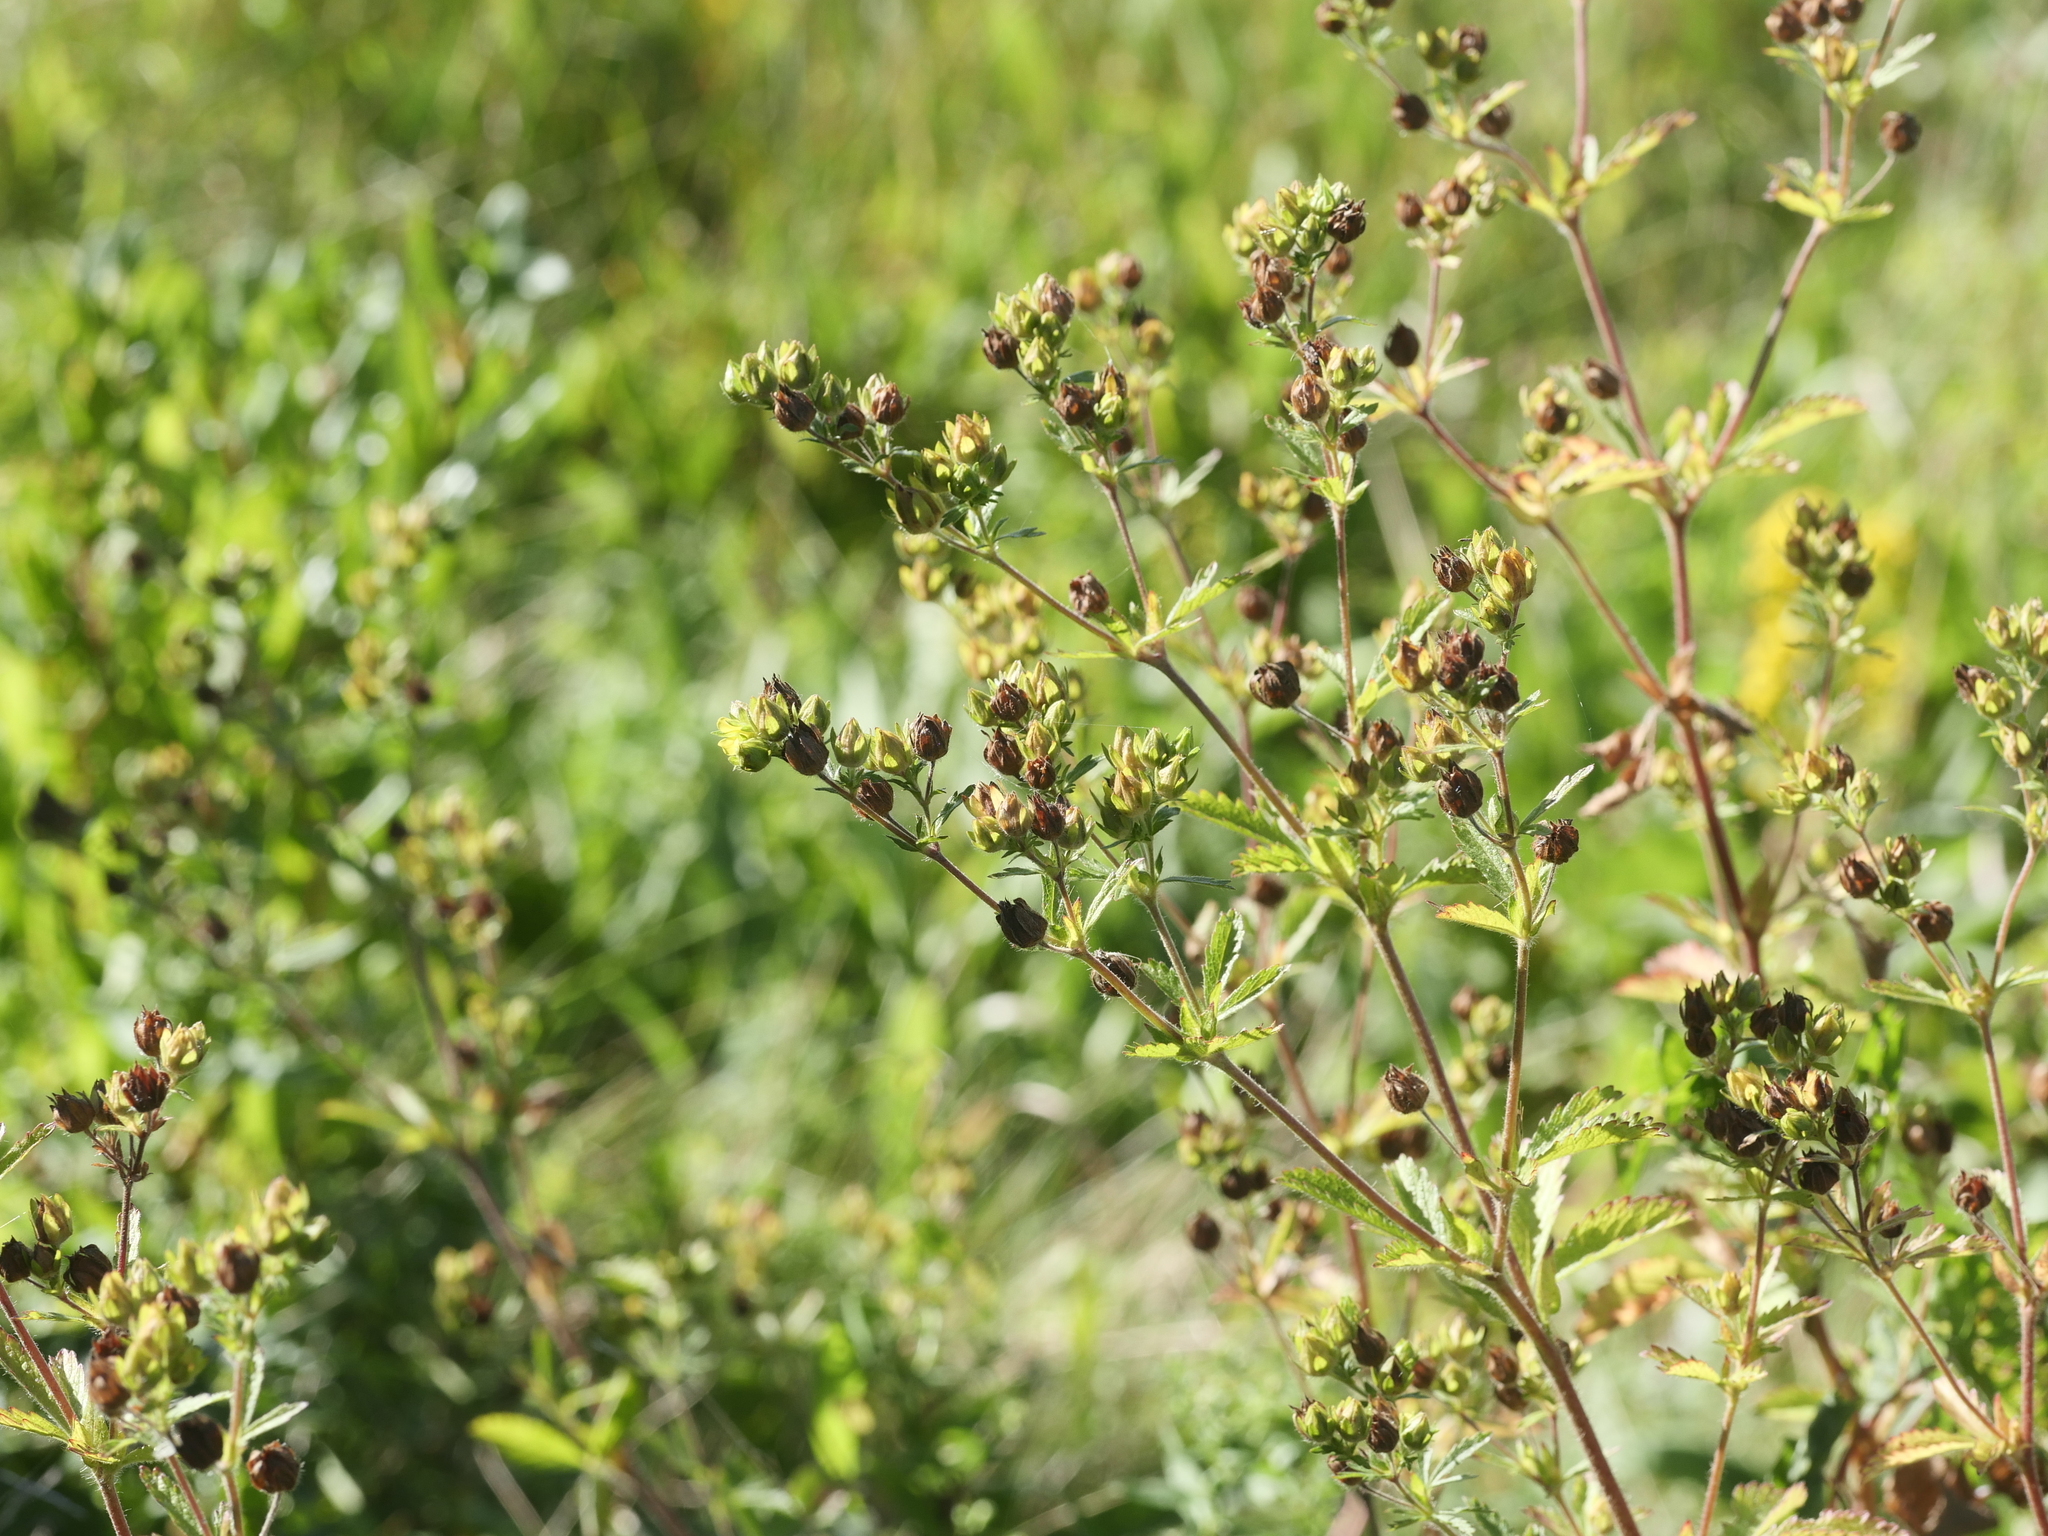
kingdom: Plantae
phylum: Tracheophyta
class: Magnoliopsida
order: Rosales
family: Rosaceae
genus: Potentilla
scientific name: Potentilla norvegica
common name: Ternate-leaved cinquefoil
